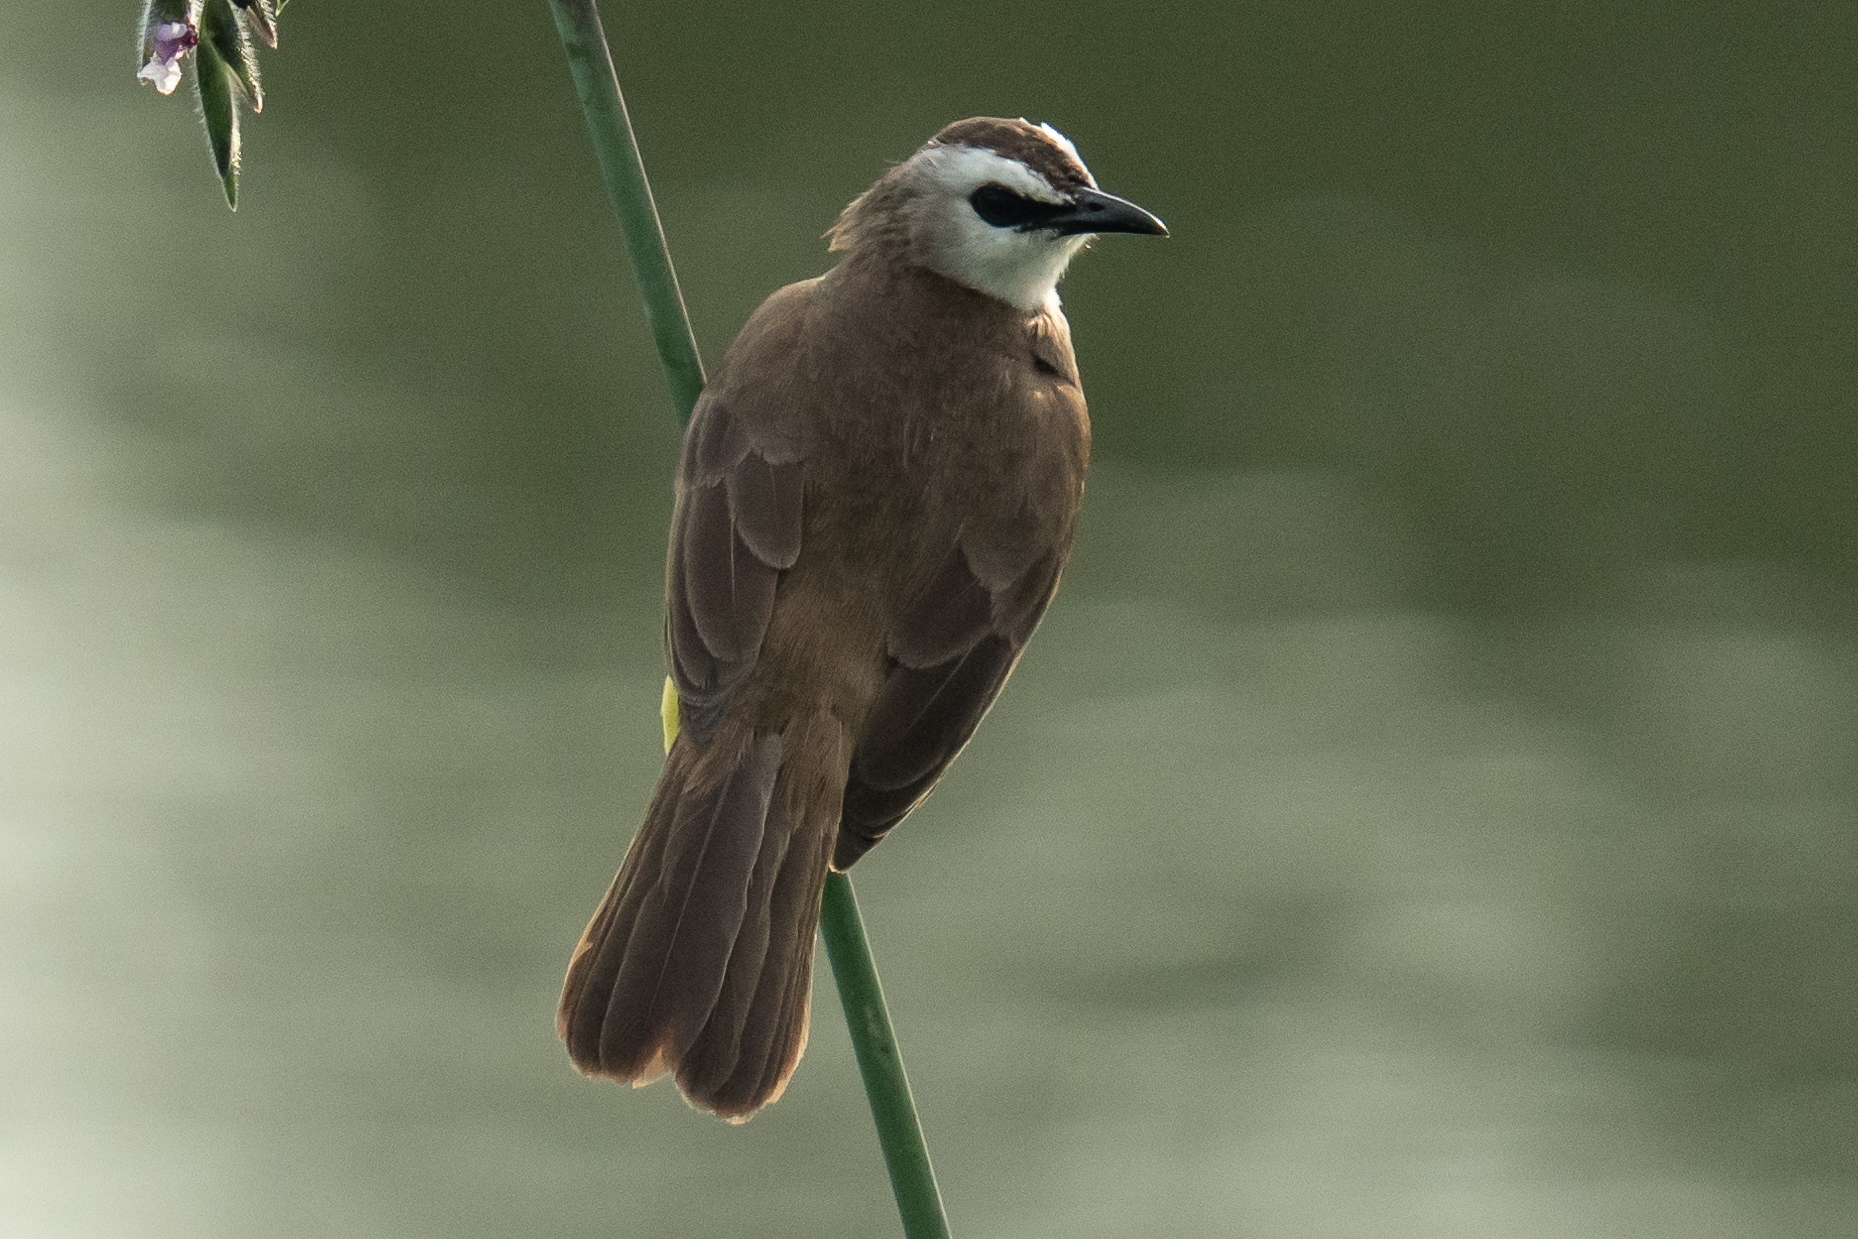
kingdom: Animalia
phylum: Chordata
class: Aves
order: Passeriformes
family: Pycnonotidae
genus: Pycnonotus
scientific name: Pycnonotus goiavier
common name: Yellow-vented bulbul
